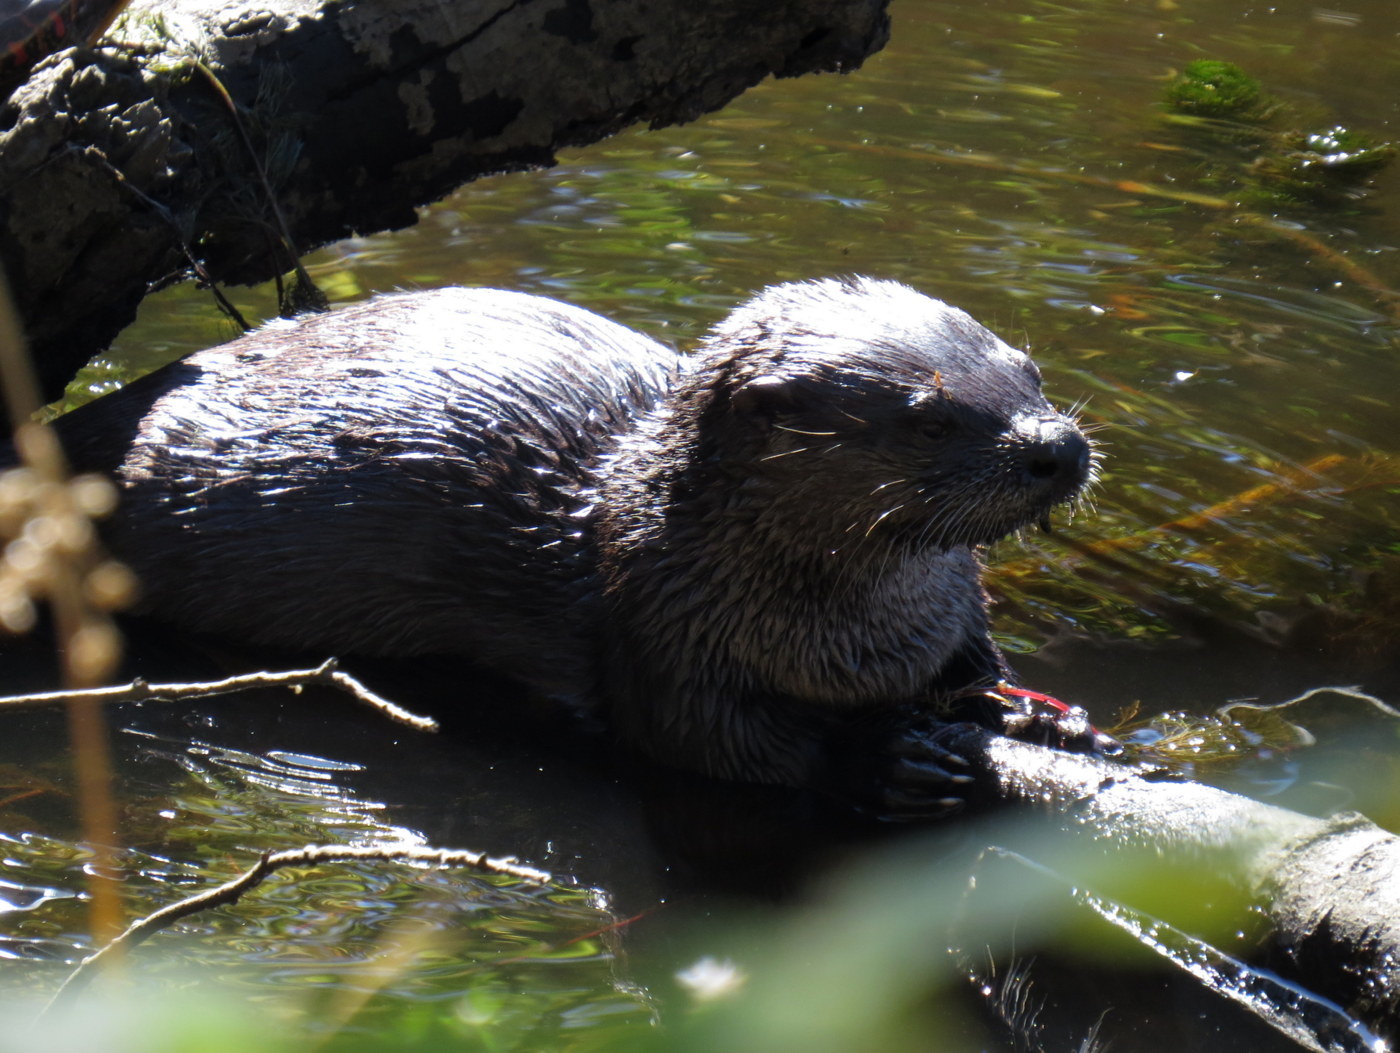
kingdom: Animalia
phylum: Chordata
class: Mammalia
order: Carnivora
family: Mustelidae
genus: Lontra
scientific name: Lontra canadensis
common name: North american river otter
